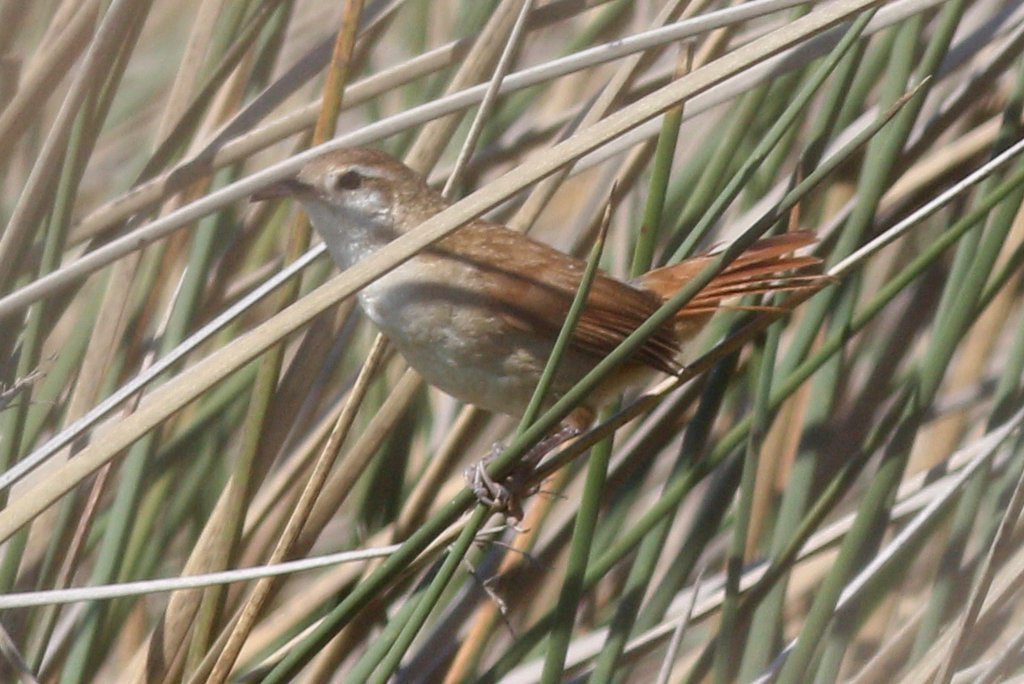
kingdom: Animalia
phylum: Chordata
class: Aves
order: Passeriformes
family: Furnariidae
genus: Limnornis
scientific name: Limnornis curvirostris
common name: Curve-billed reedhaunter
